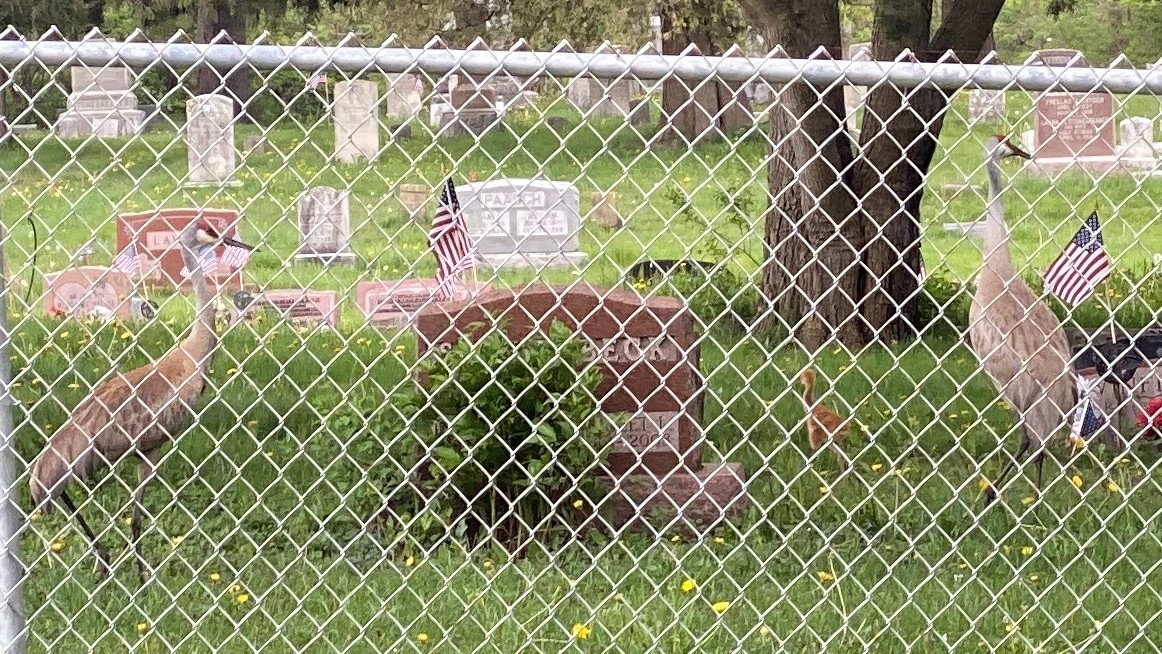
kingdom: Animalia
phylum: Chordata
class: Aves
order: Gruiformes
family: Gruidae
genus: Grus
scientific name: Grus canadensis
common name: Sandhill crane
